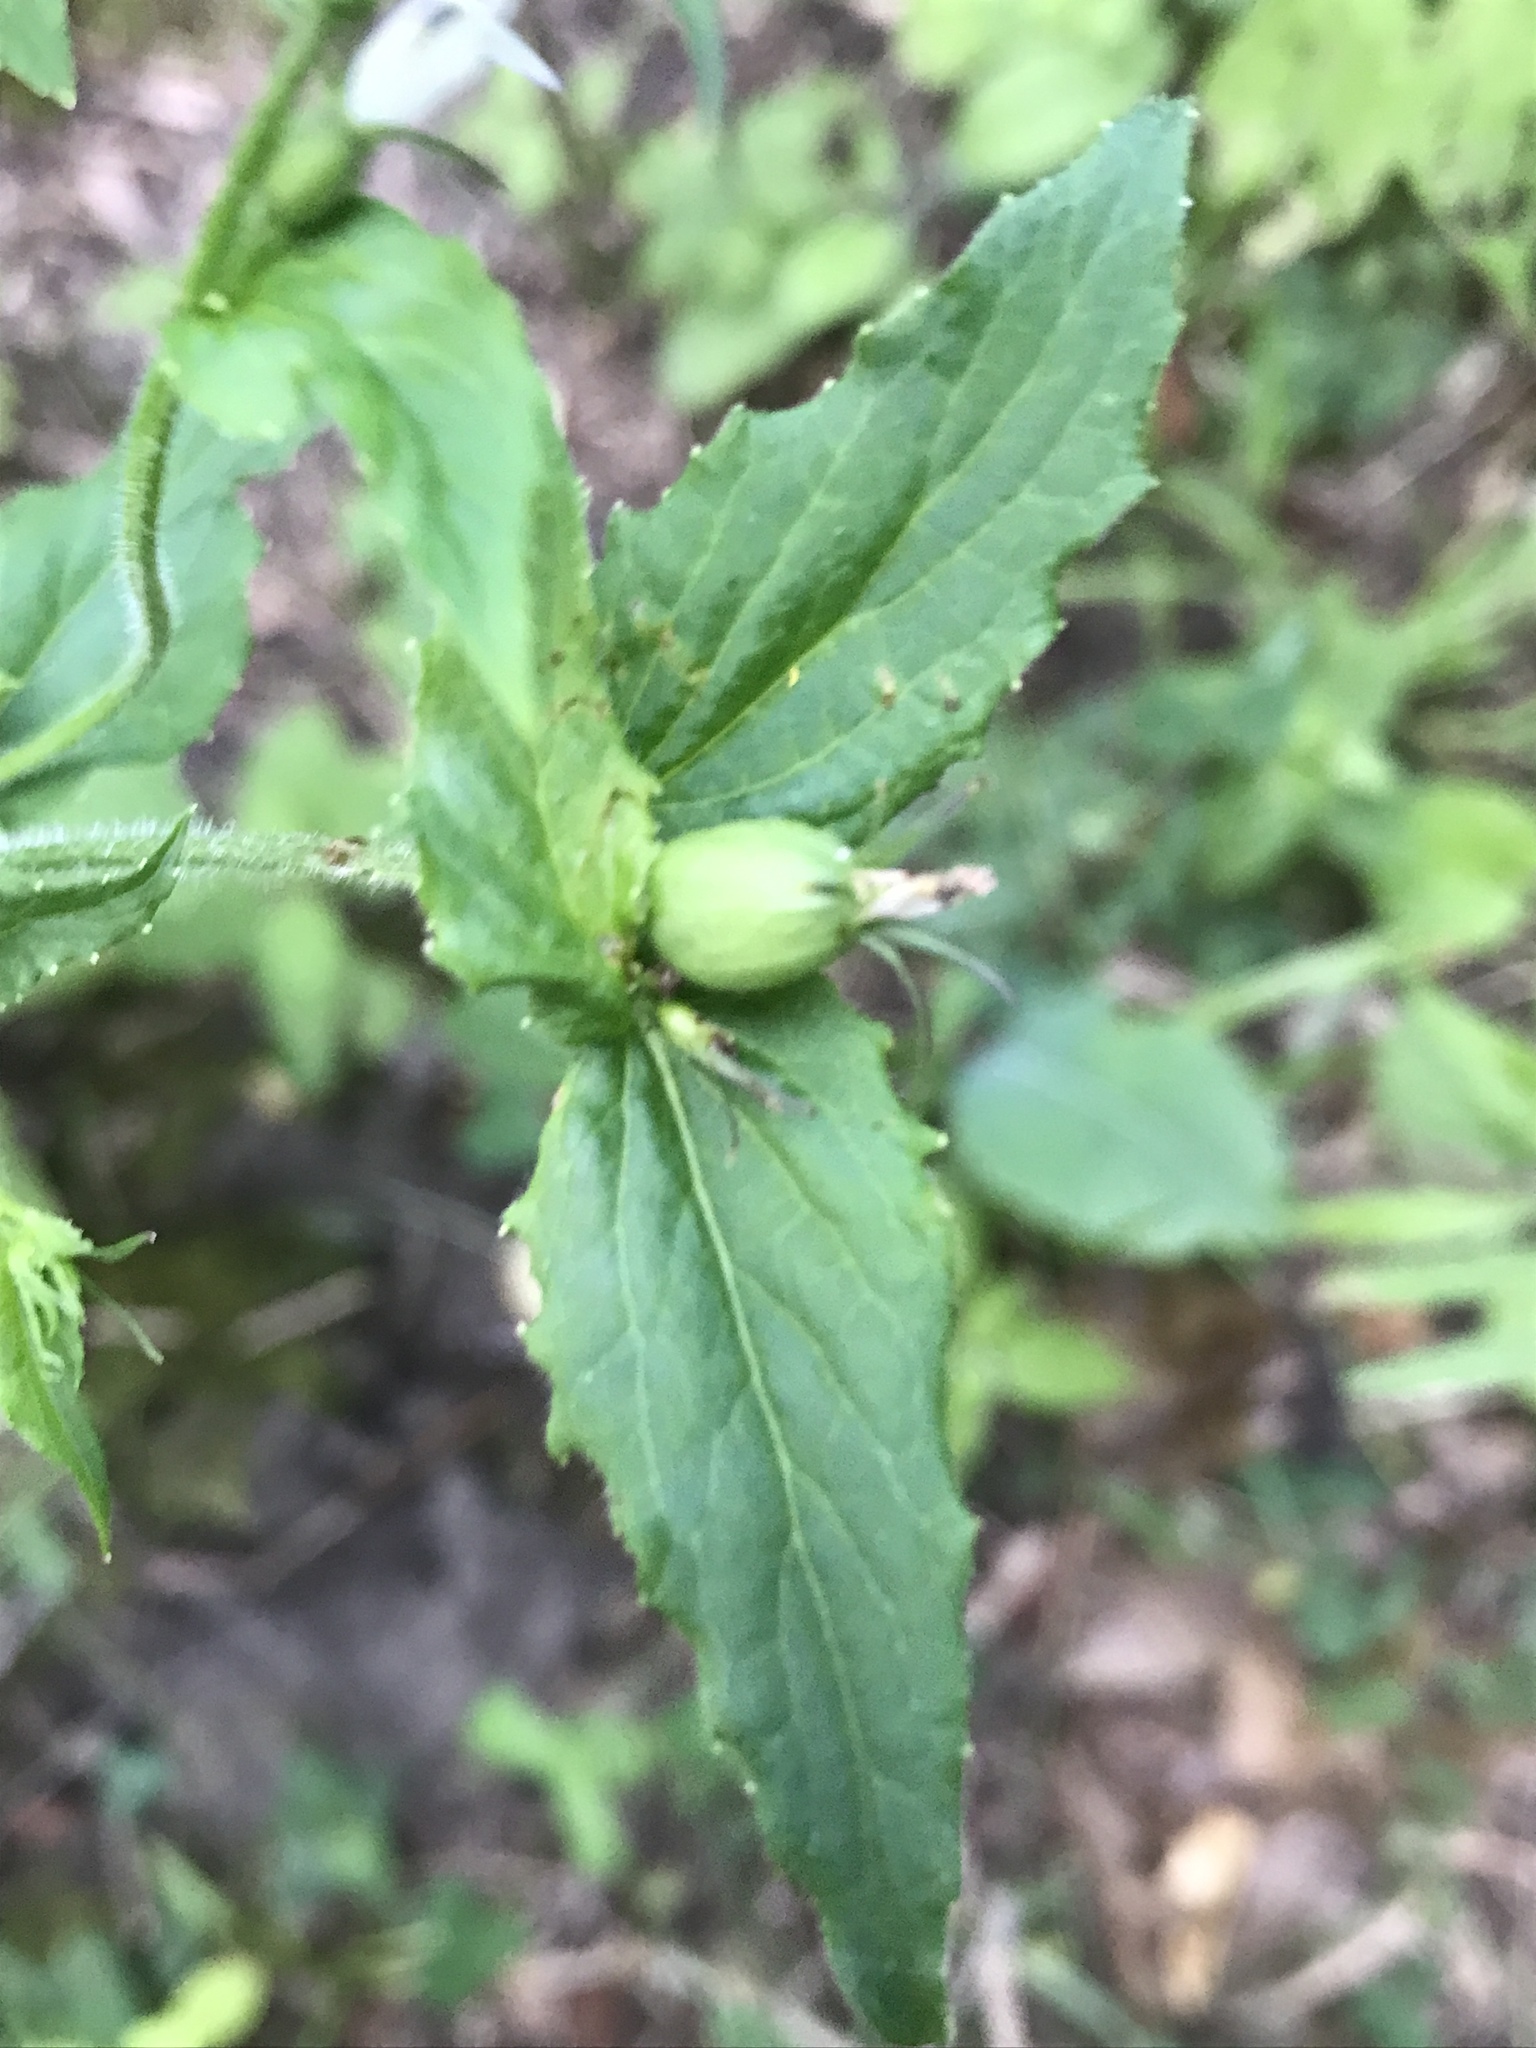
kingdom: Plantae
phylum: Tracheophyta
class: Magnoliopsida
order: Asterales
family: Campanulaceae
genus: Lobelia
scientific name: Lobelia inflata
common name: Indian tobacco
